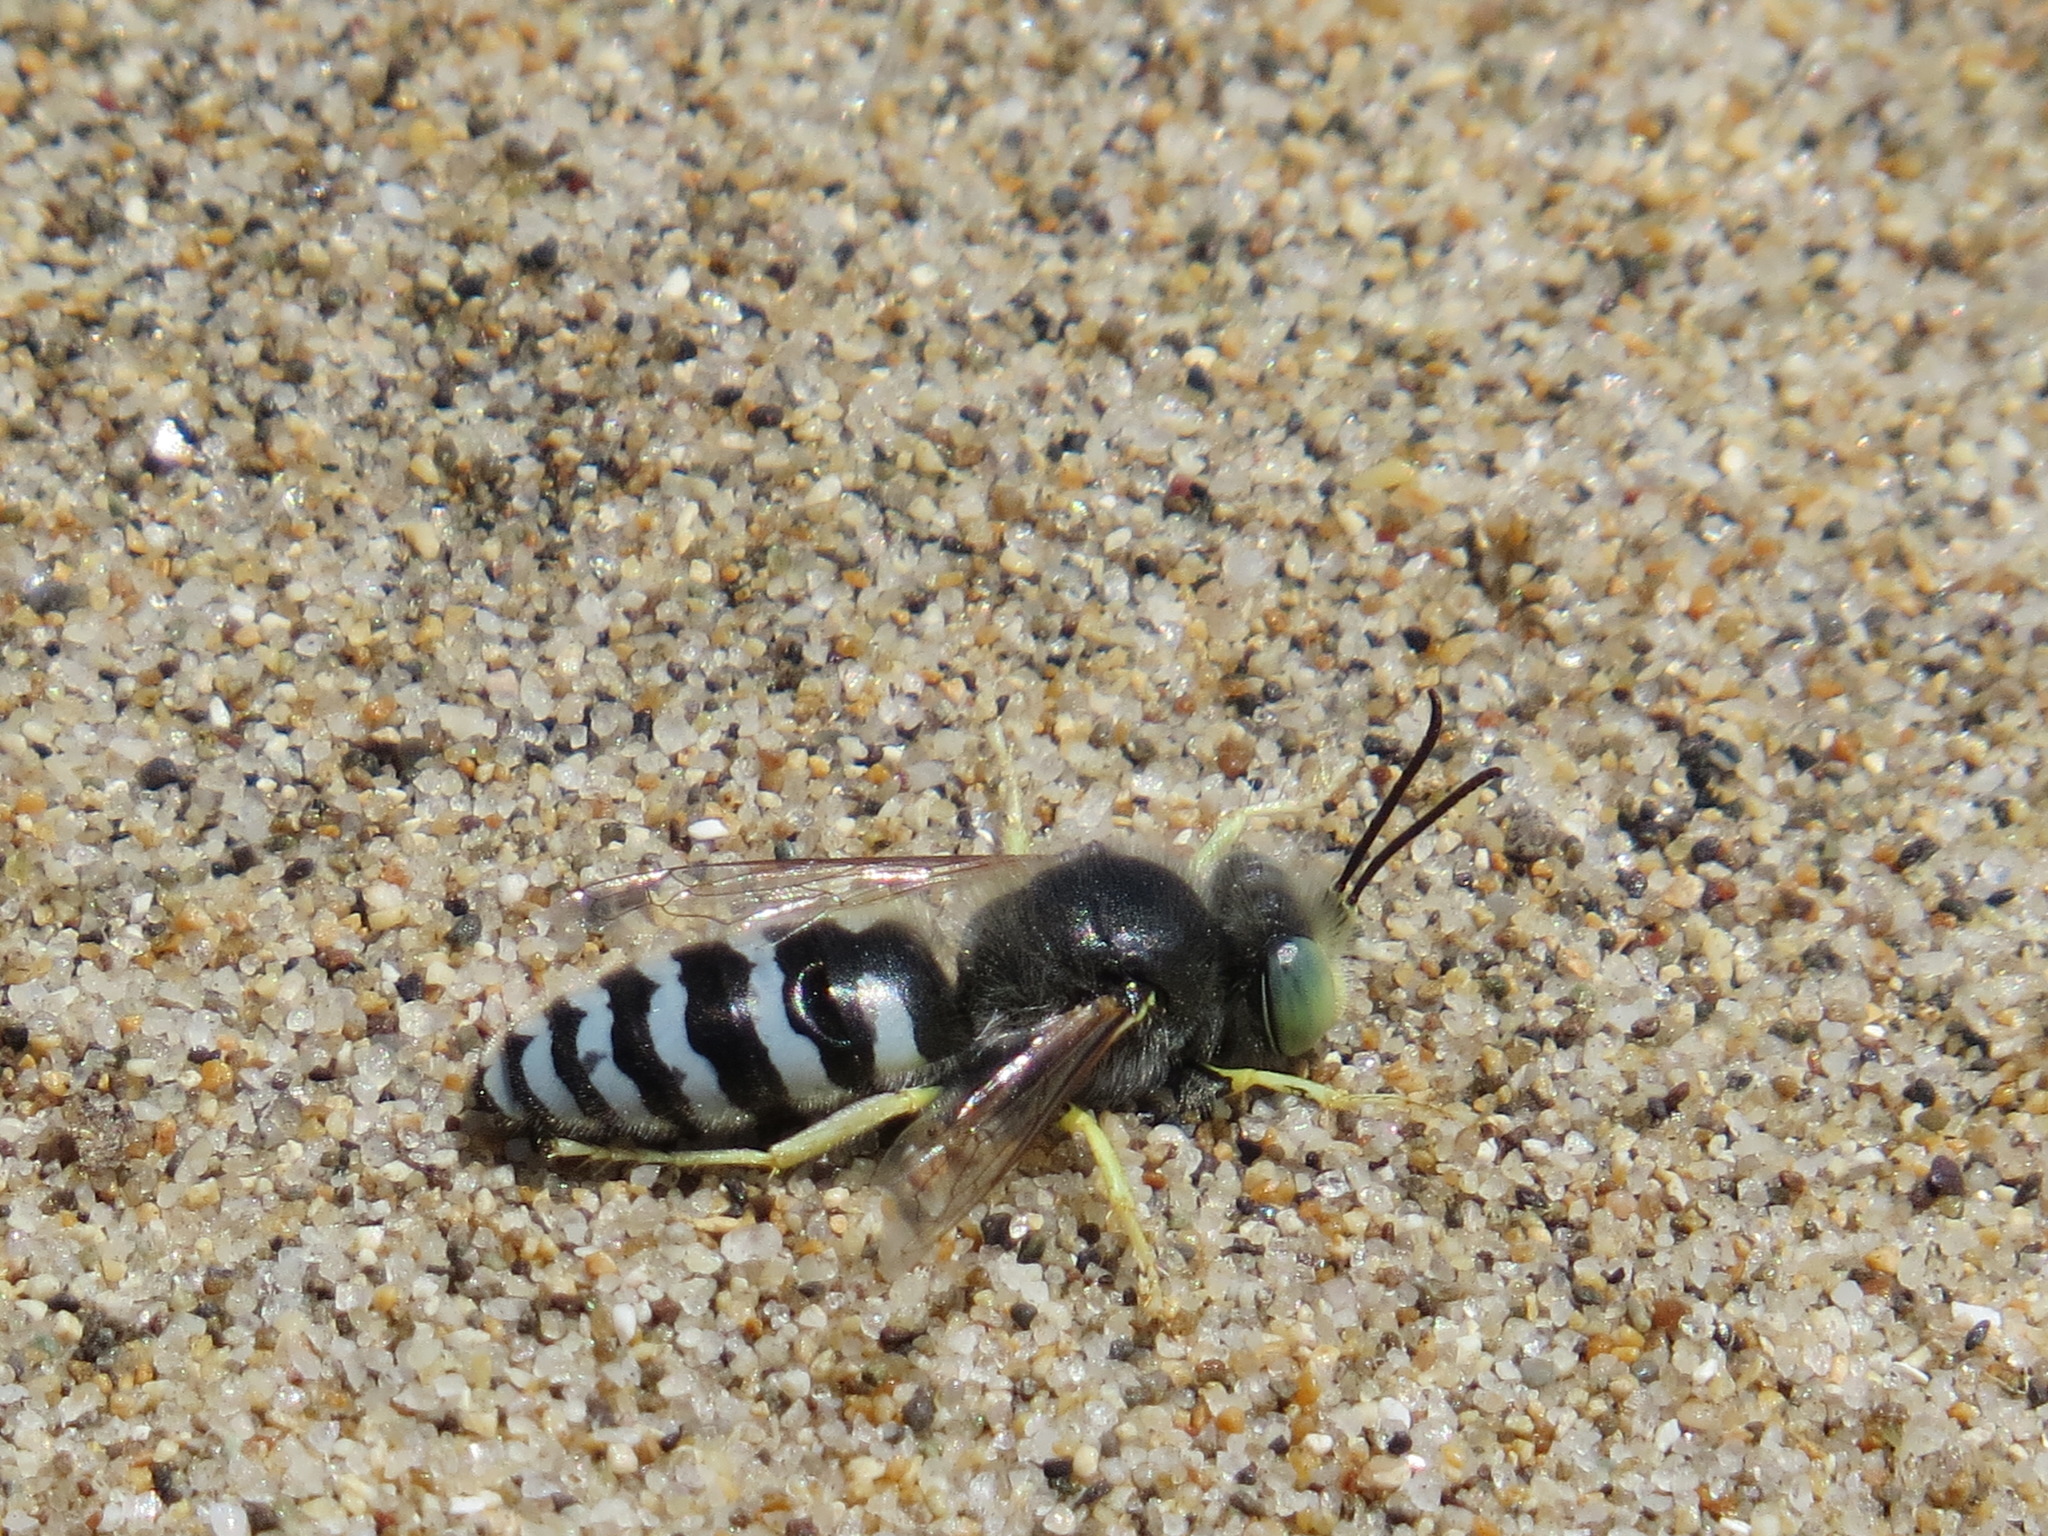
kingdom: Animalia
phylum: Arthropoda
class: Insecta
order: Hymenoptera
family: Crabronidae
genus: Bembix
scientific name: Bembix americana
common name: American sand wasp
